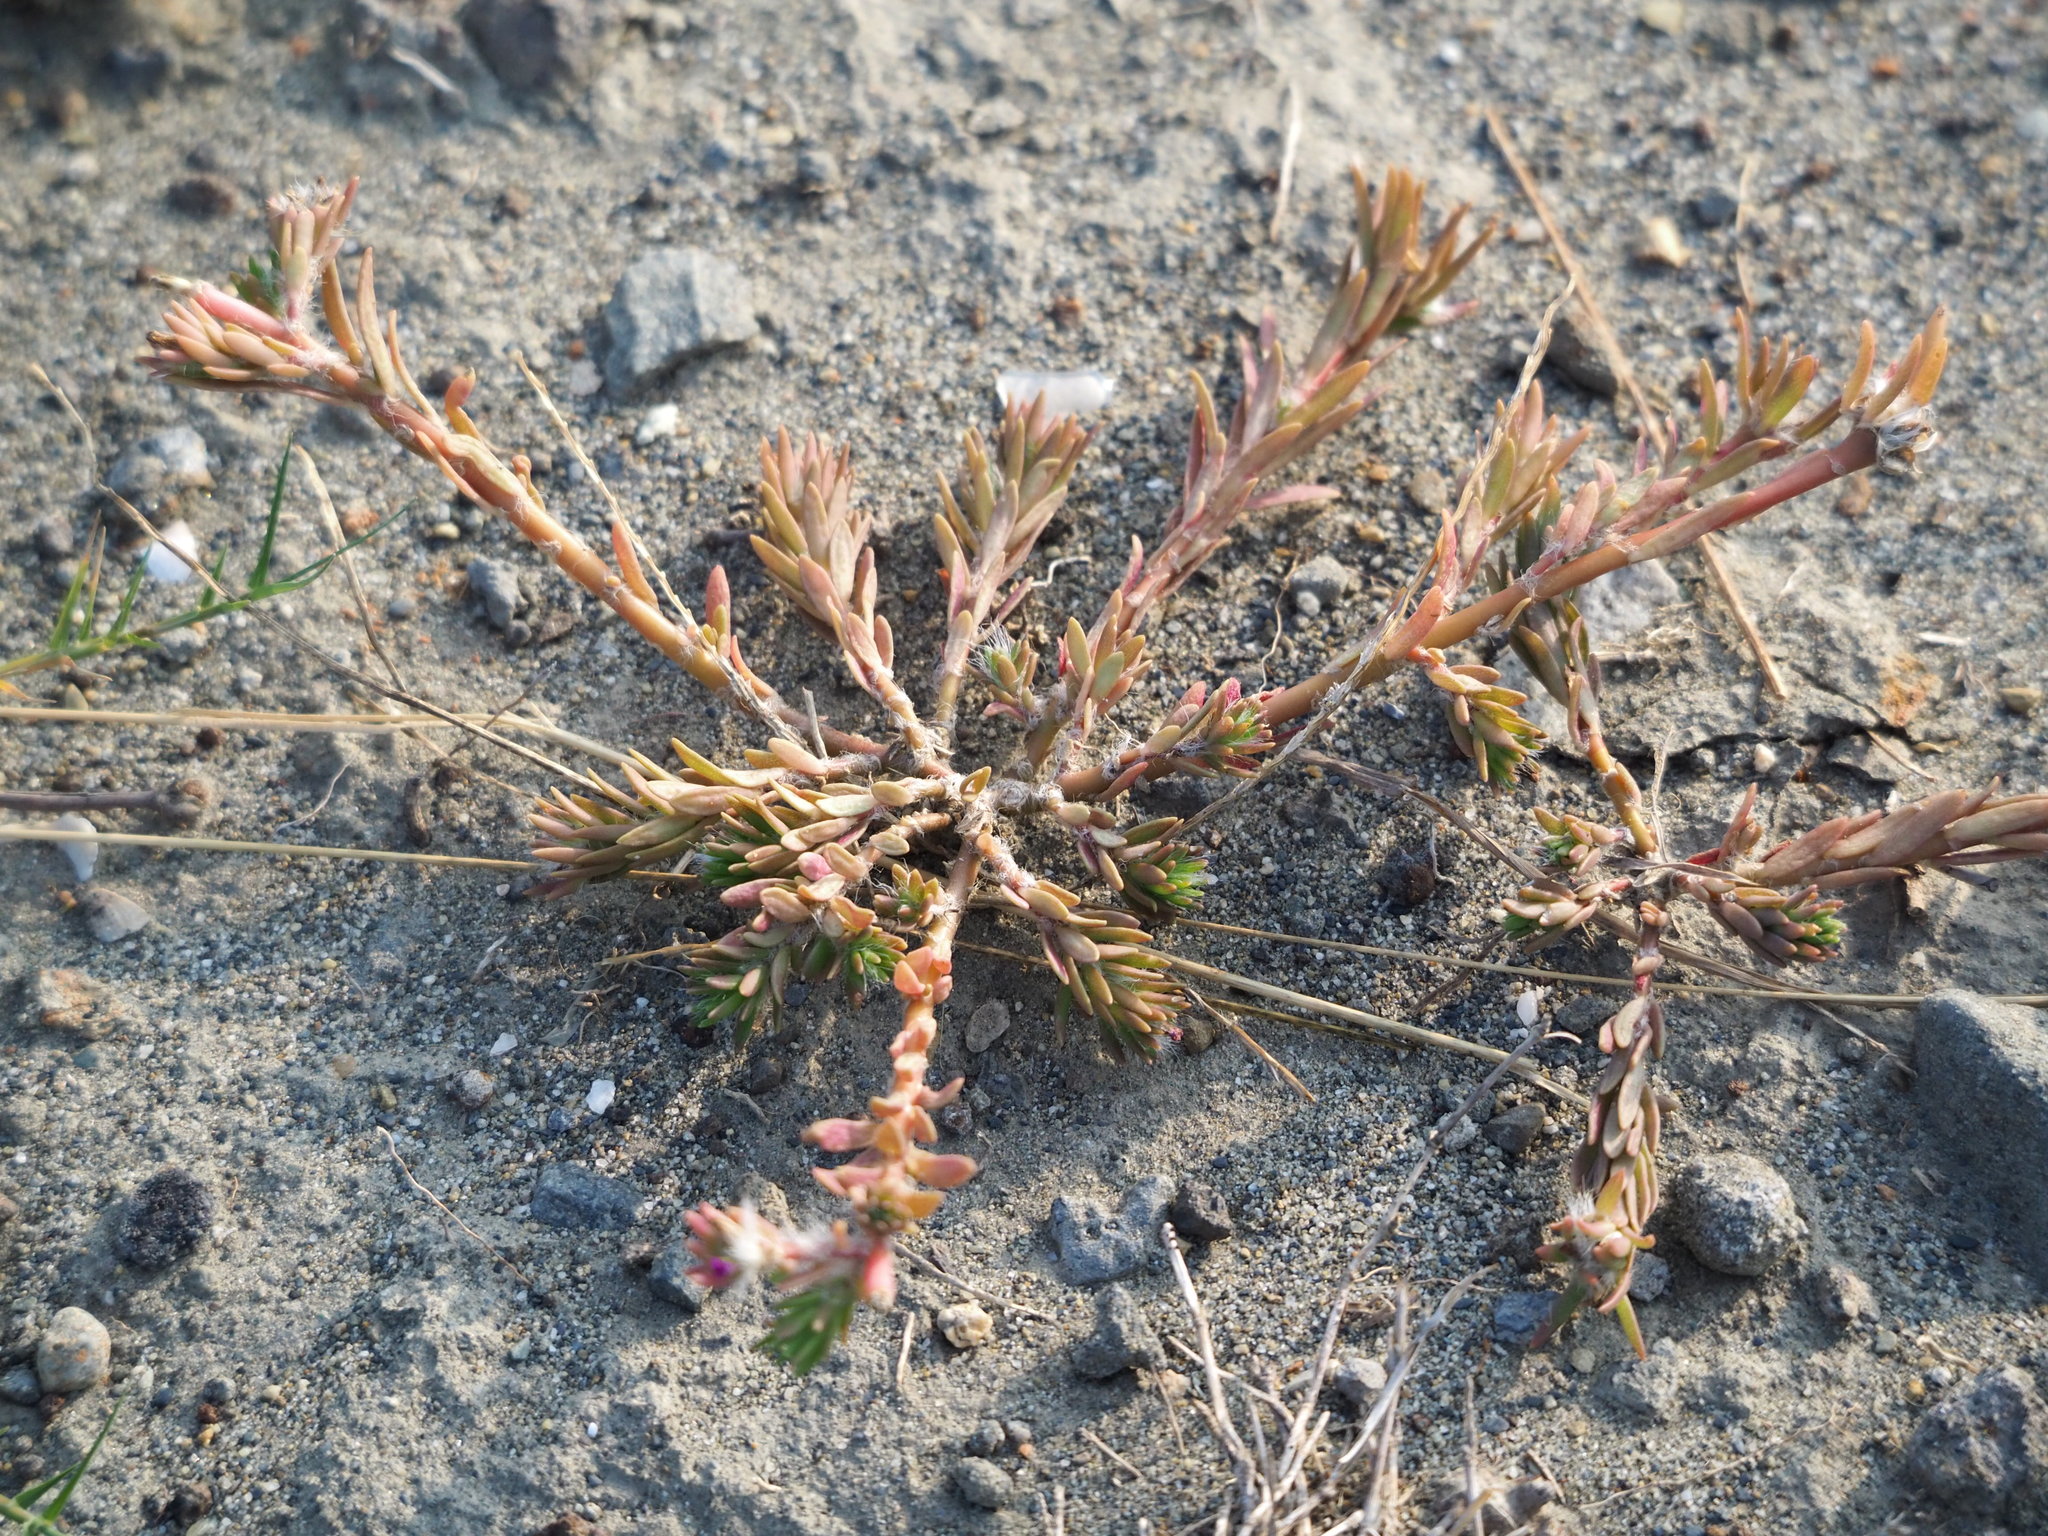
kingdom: Plantae
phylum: Tracheophyta
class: Magnoliopsida
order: Caryophyllales
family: Portulacaceae
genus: Portulaca
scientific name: Portulaca pilosa
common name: Kiss me quick
